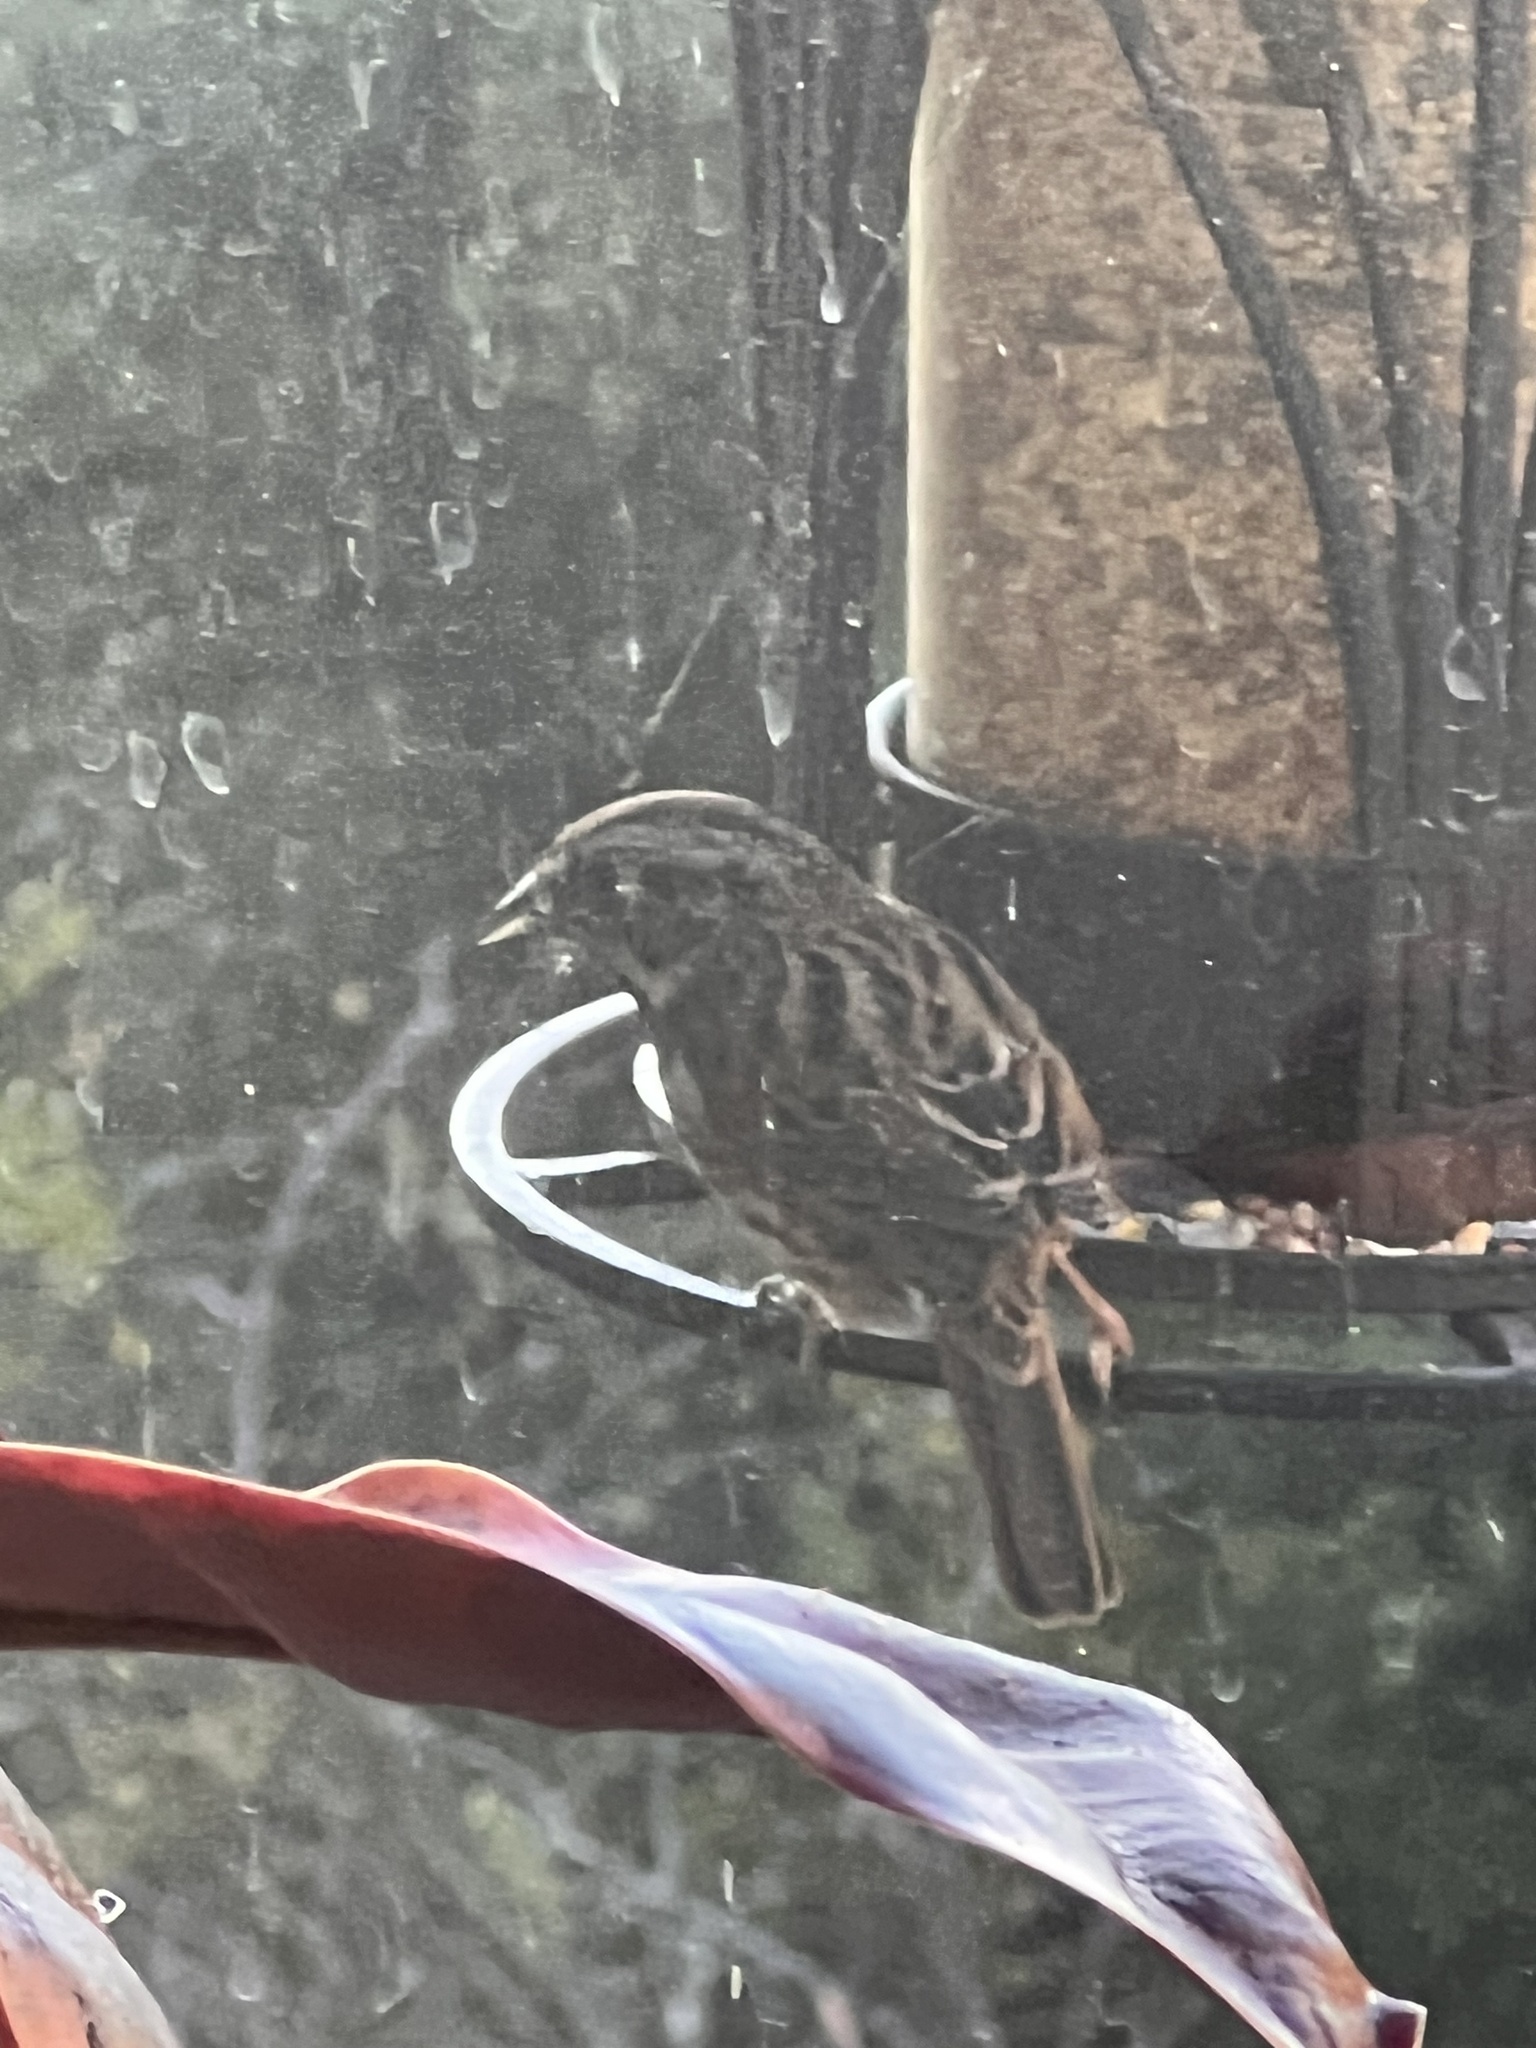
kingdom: Animalia
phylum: Chordata
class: Aves
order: Passeriformes
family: Passerellidae
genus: Melospiza
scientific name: Melospiza melodia
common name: Song sparrow
